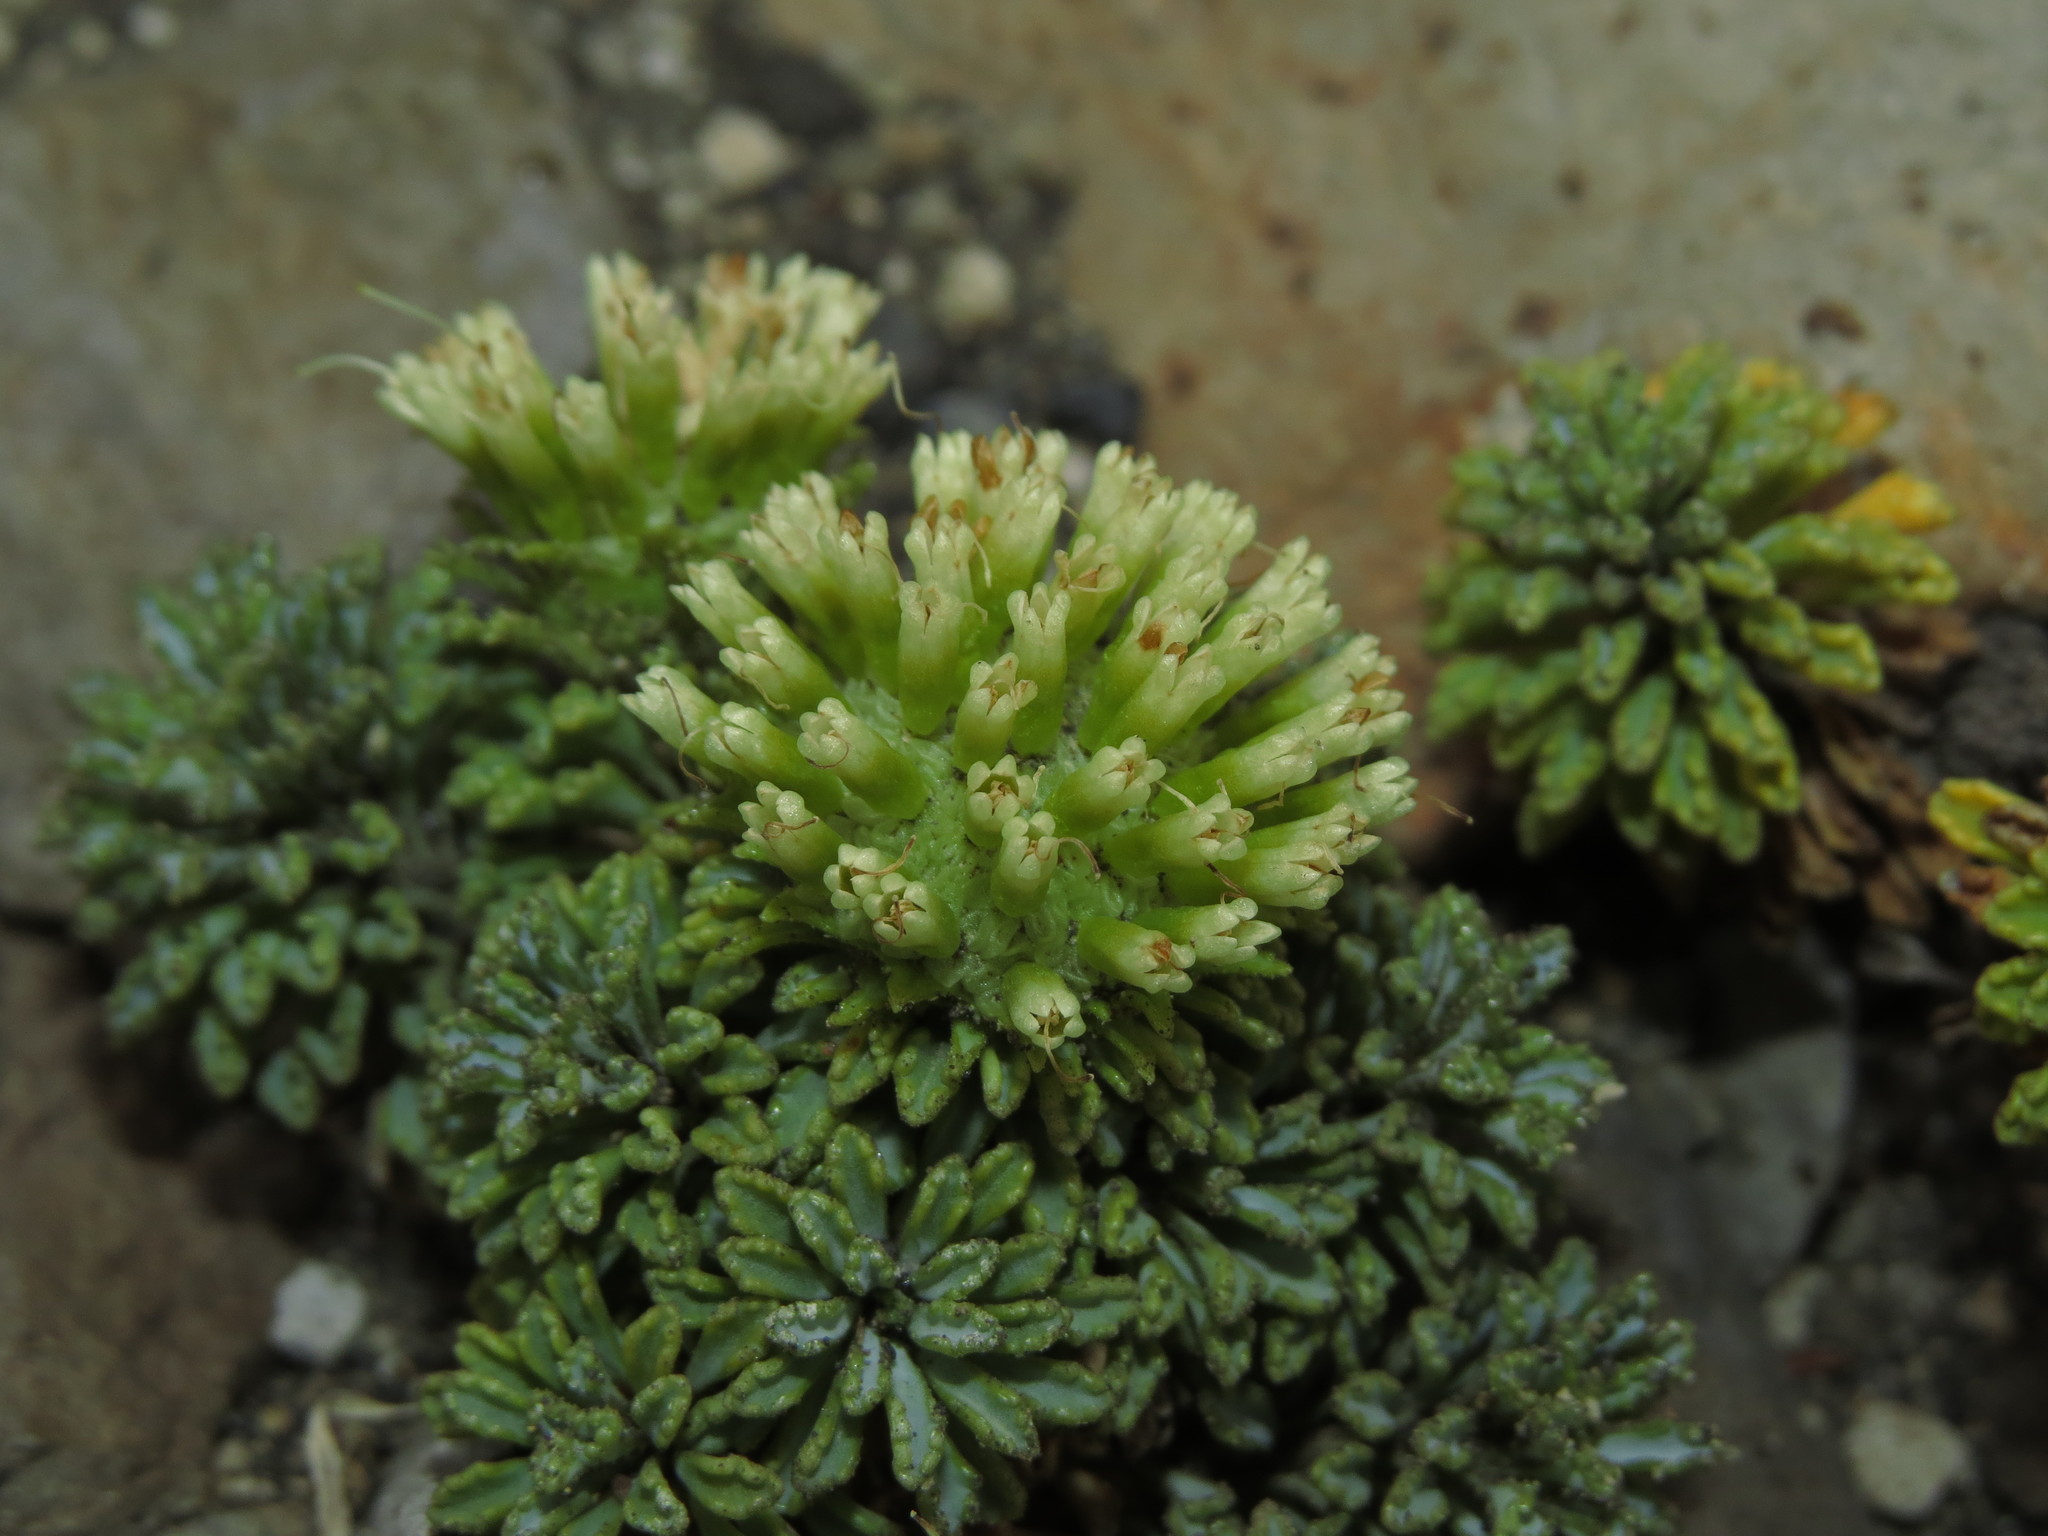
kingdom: Plantae
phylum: Tracheophyta
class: Magnoliopsida
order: Asterales
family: Calyceraceae
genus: Moschopsis
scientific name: Moschopsis dentata
